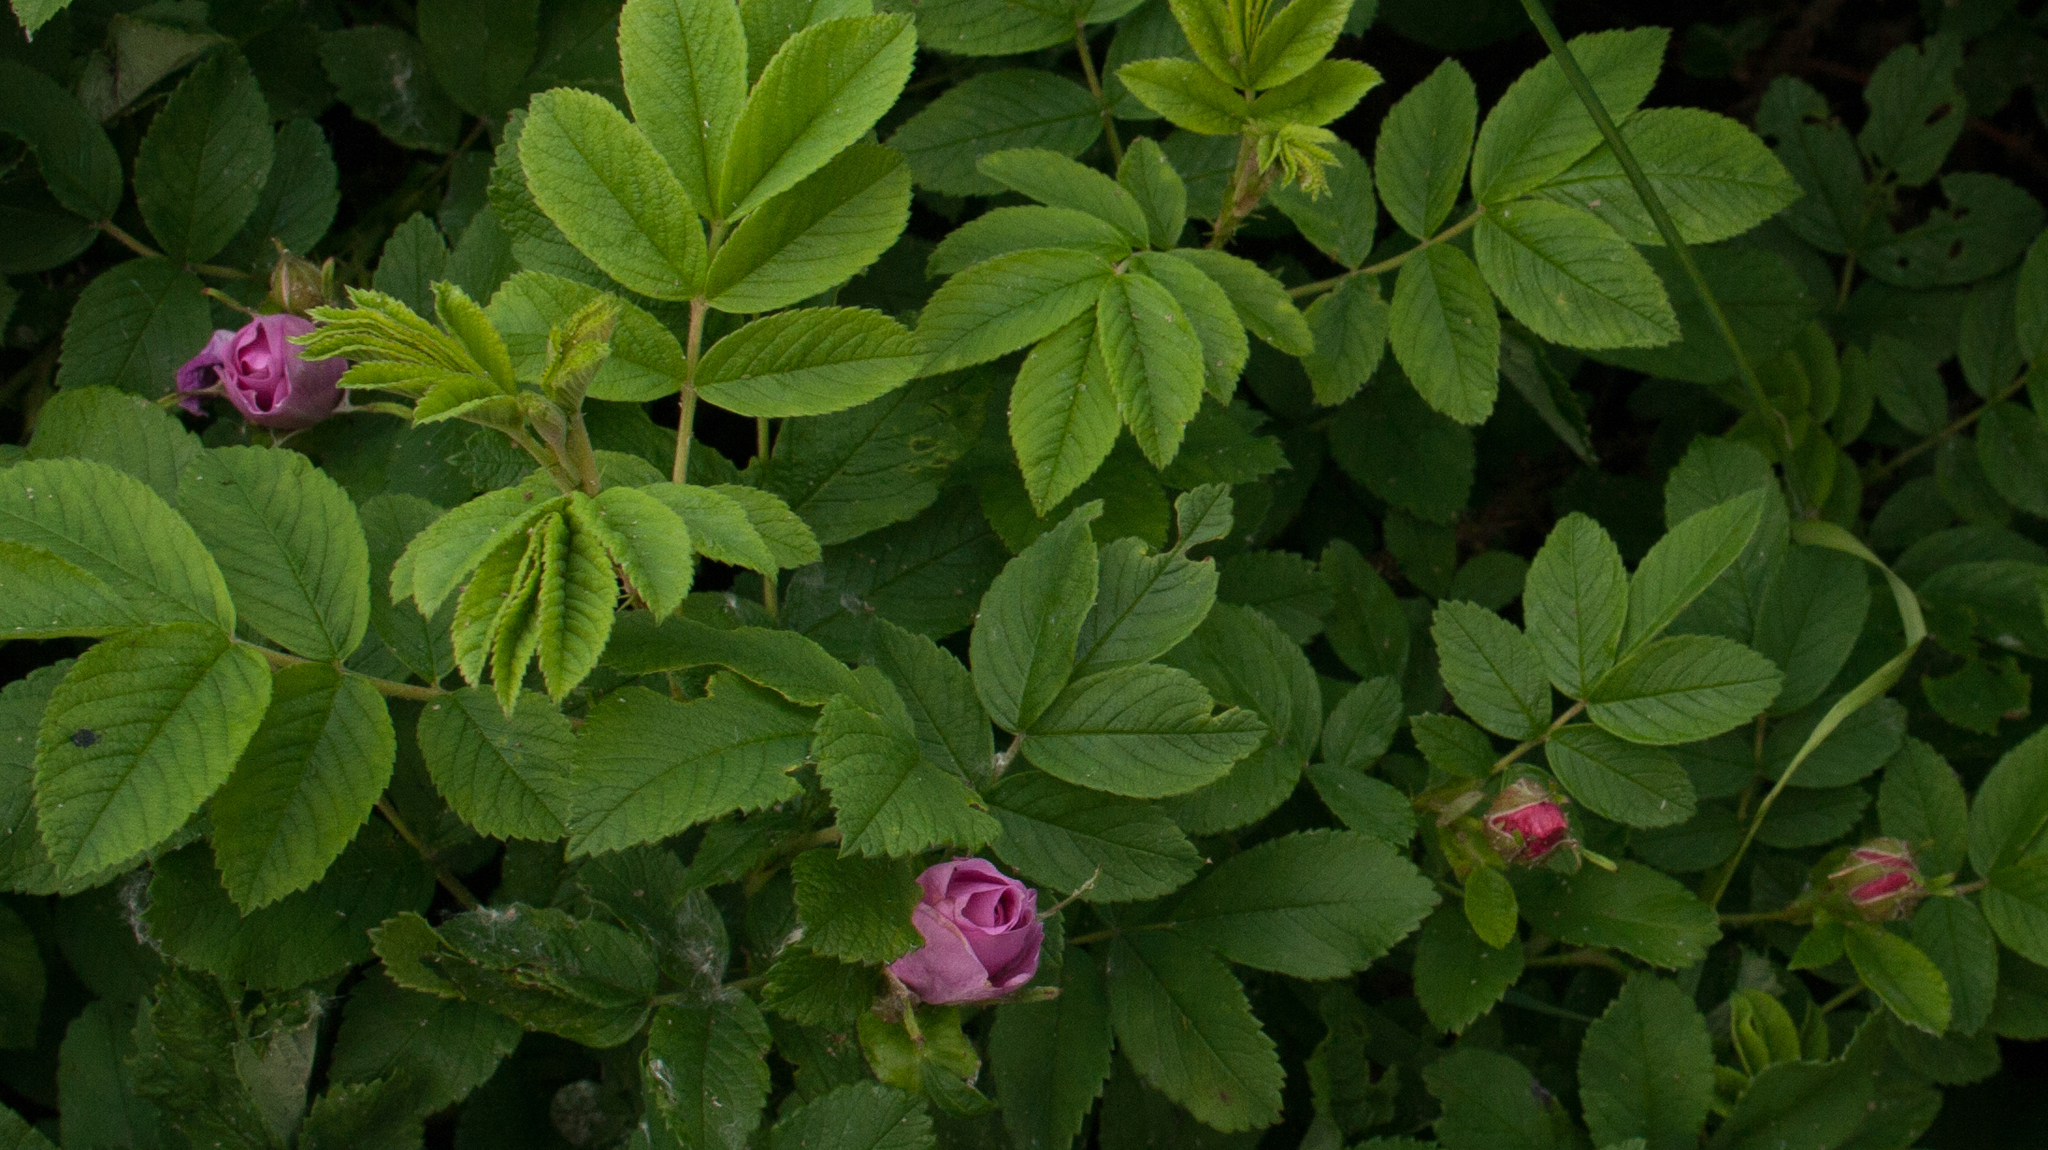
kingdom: Plantae
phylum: Tracheophyta
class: Magnoliopsida
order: Rosales
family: Rosaceae
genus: Rosa
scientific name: Rosa rugosa
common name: Japanese rose
